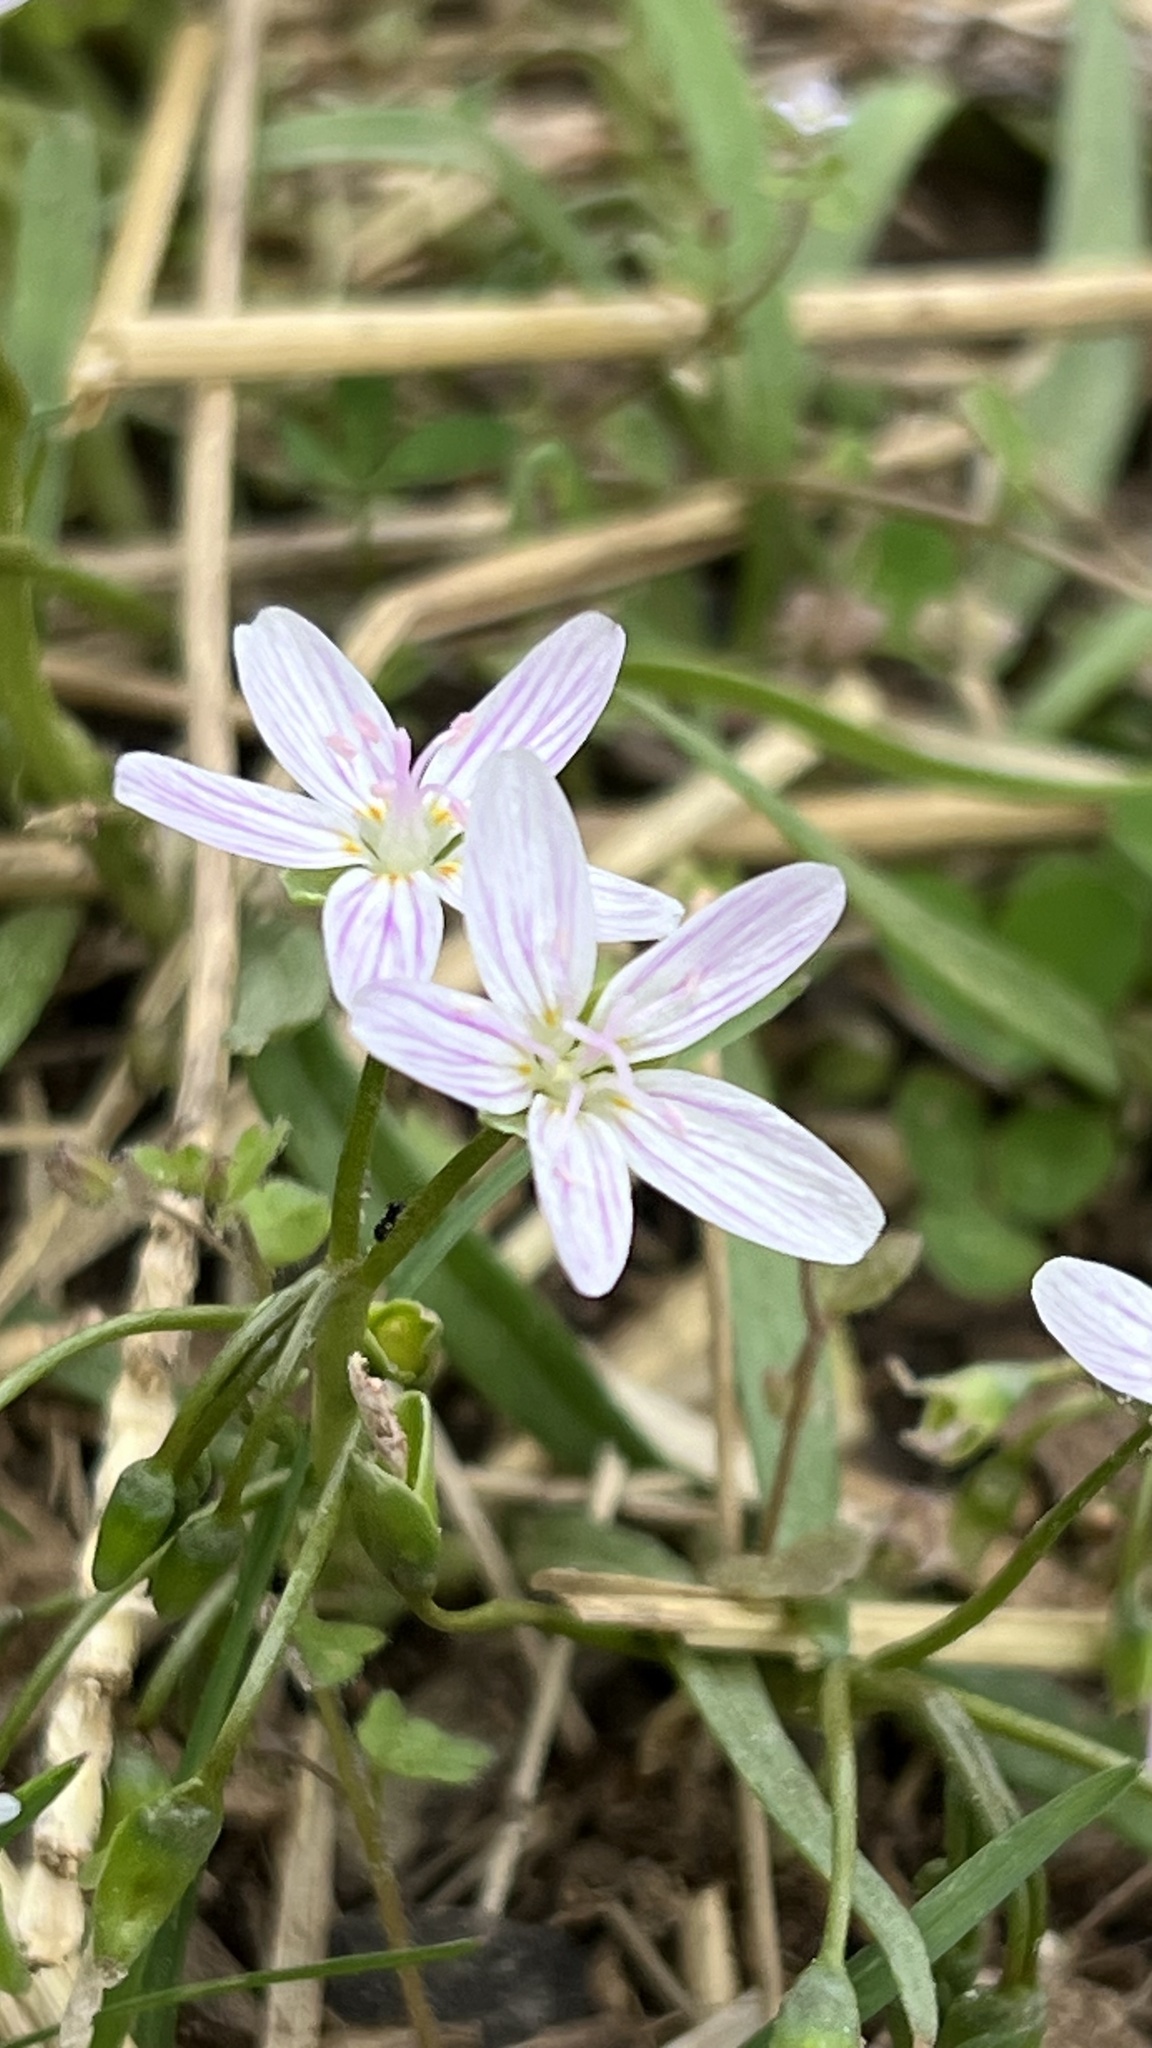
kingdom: Plantae
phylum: Tracheophyta
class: Magnoliopsida
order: Caryophyllales
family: Montiaceae
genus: Claytonia
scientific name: Claytonia virginica
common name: Virginia springbeauty
